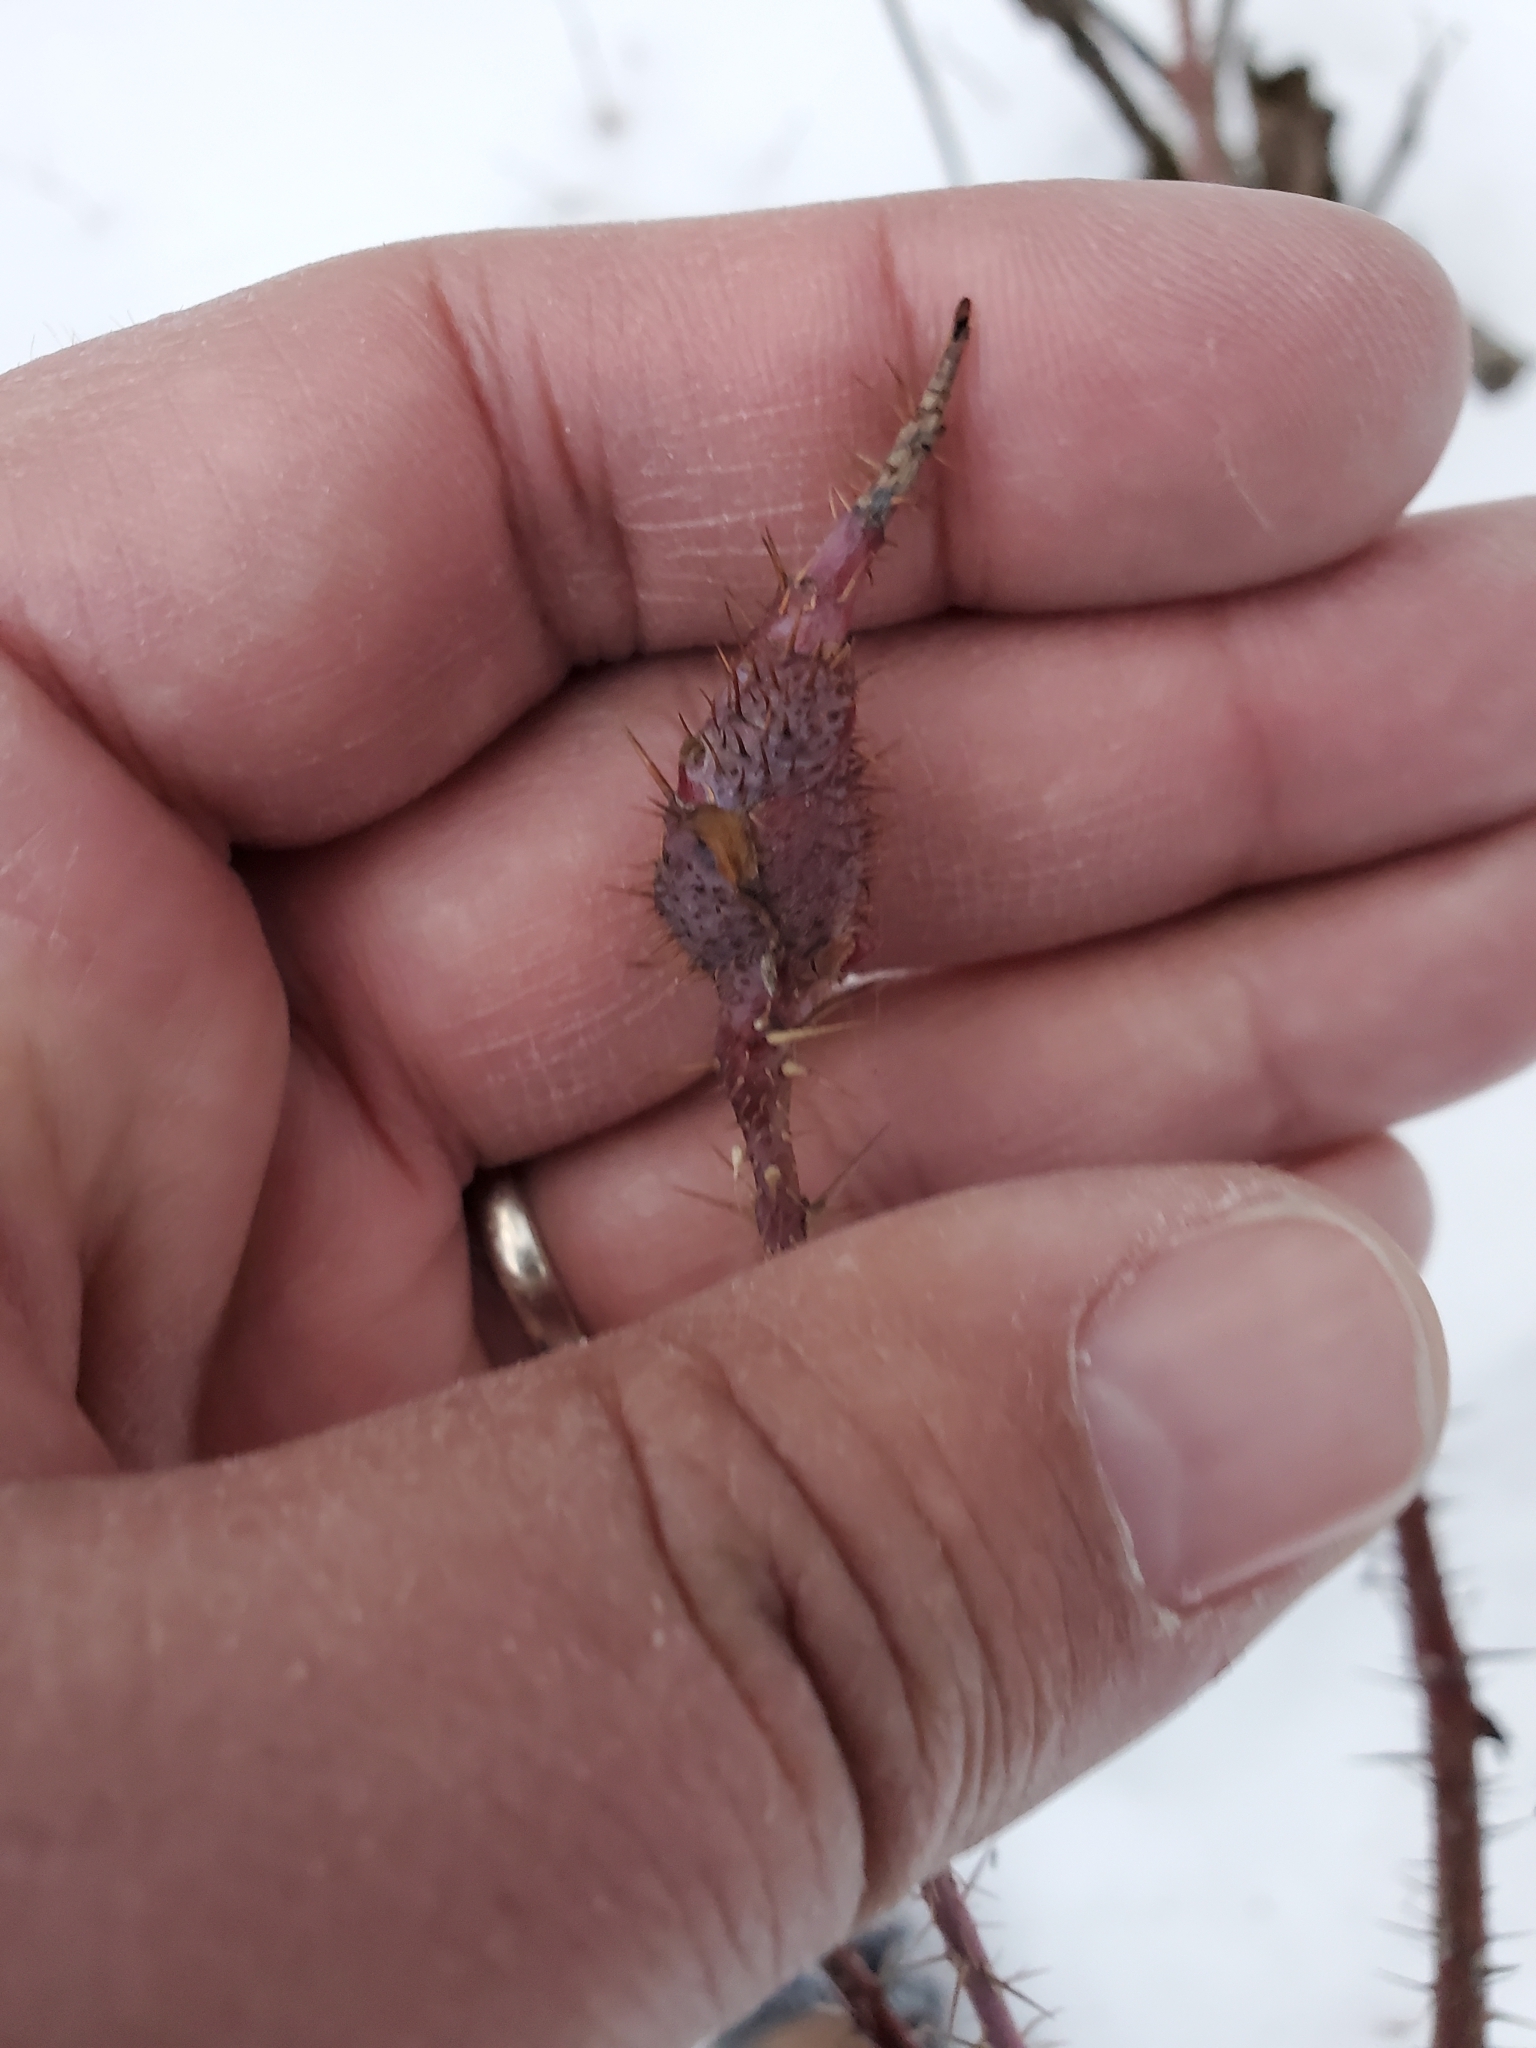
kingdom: Animalia
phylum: Arthropoda
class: Insecta
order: Hymenoptera
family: Cynipidae
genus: Diplolepis
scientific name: Diplolepis triforma
